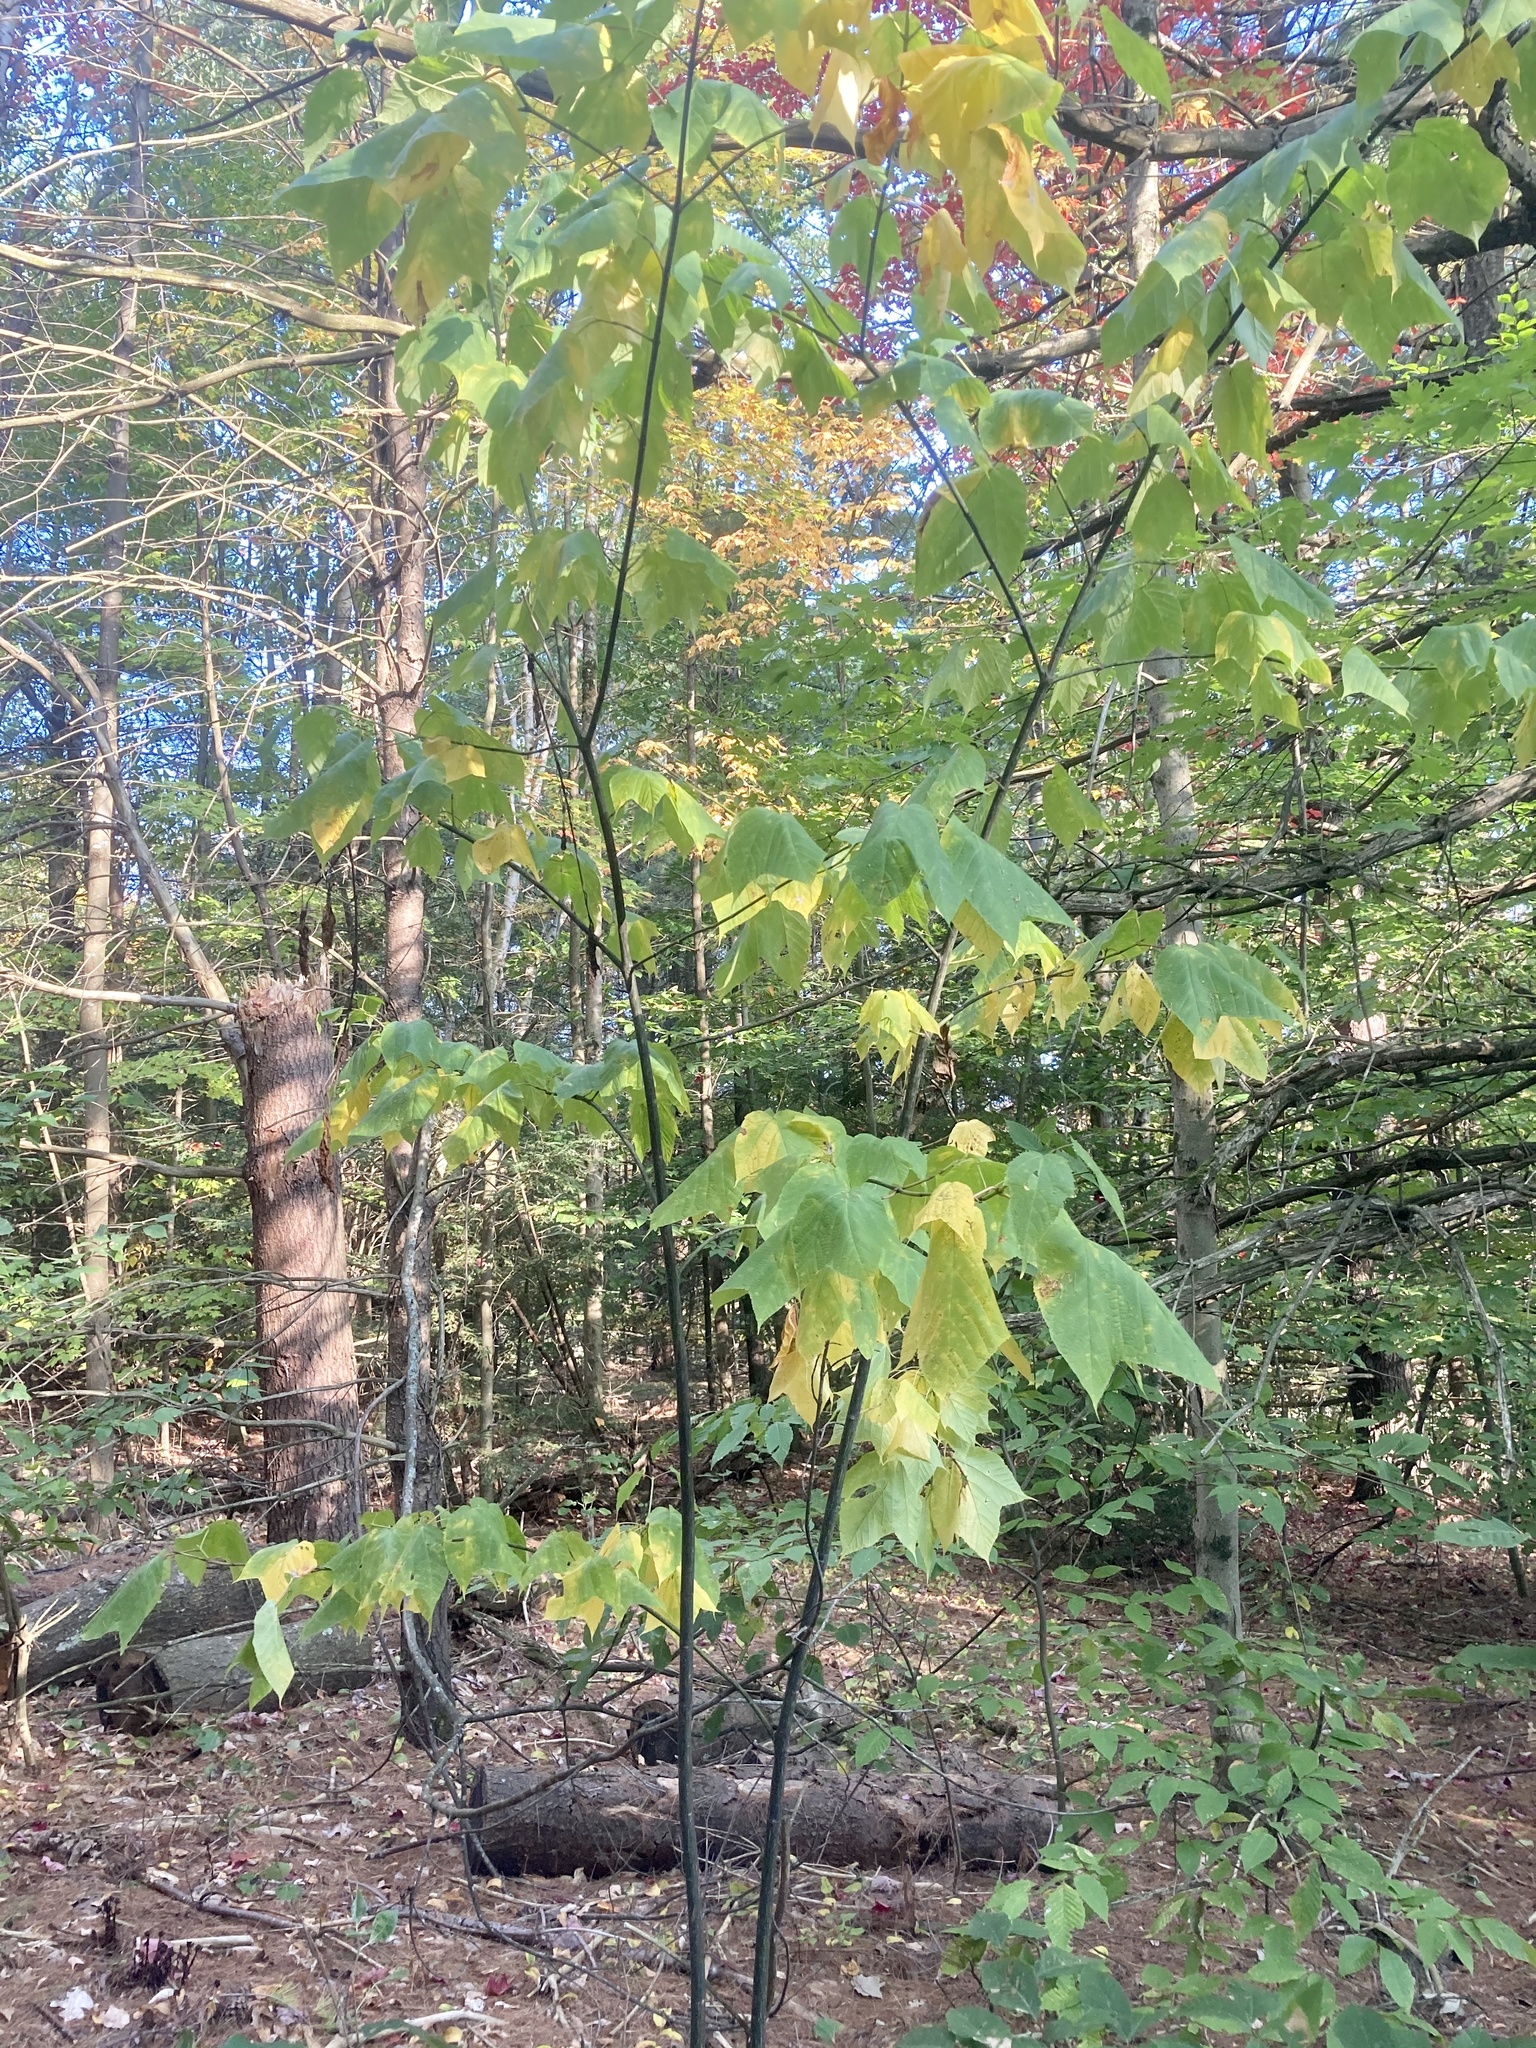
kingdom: Plantae
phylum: Tracheophyta
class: Magnoliopsida
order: Sapindales
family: Sapindaceae
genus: Acer
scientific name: Acer pensylvanicum
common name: Moosewood
